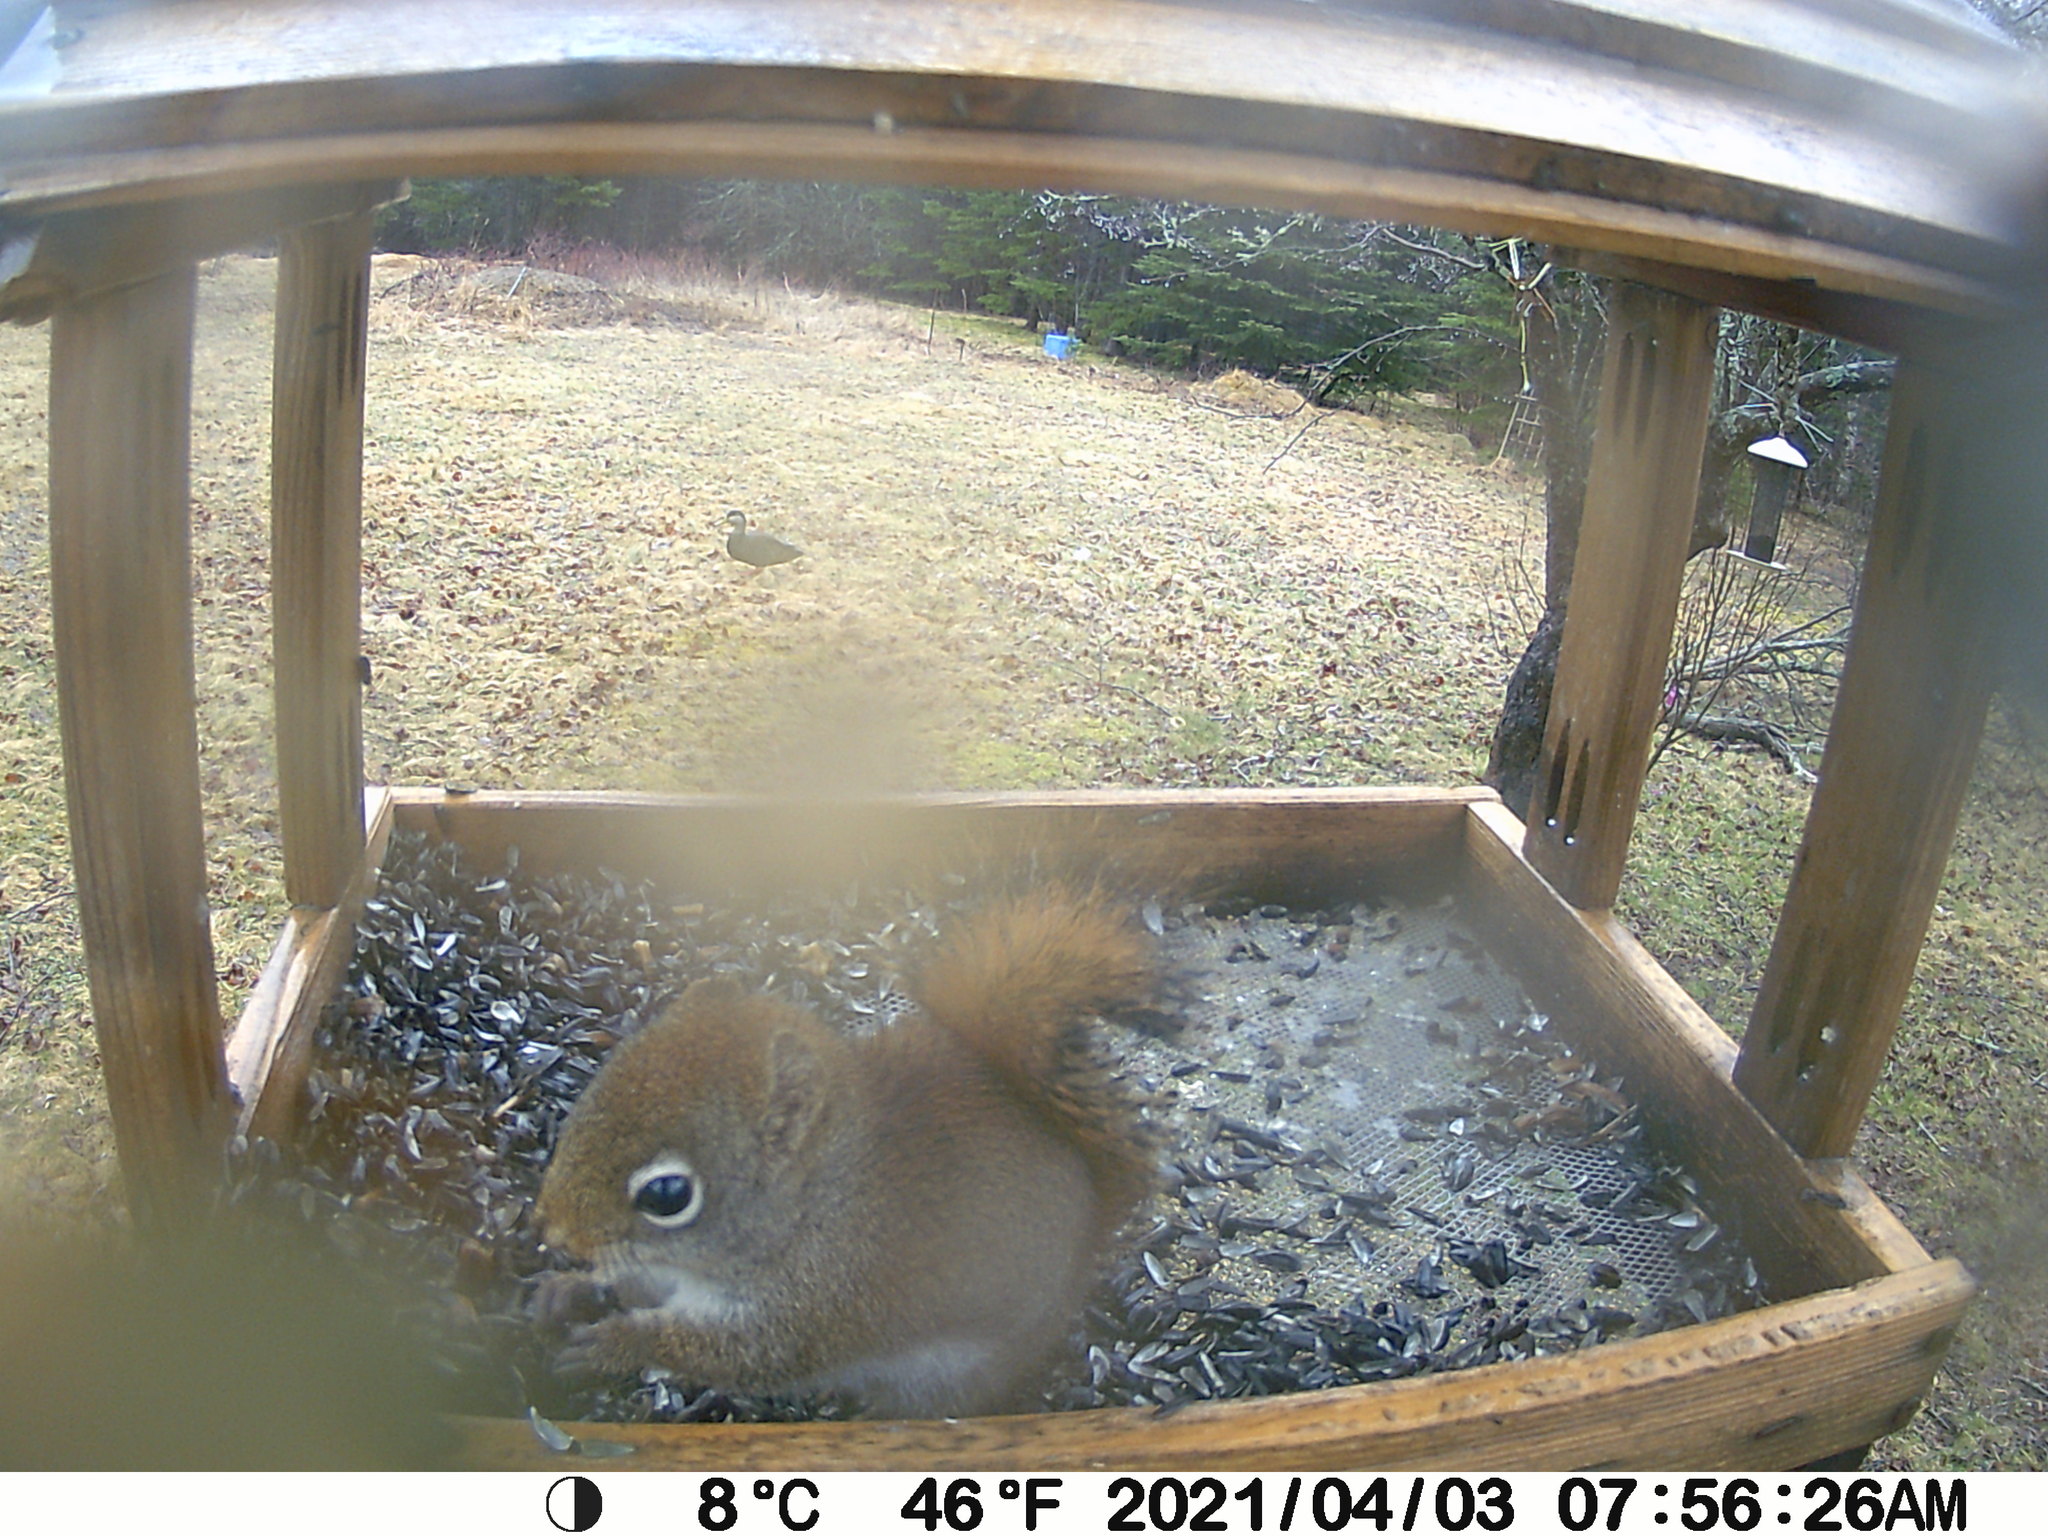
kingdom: Animalia
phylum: Chordata
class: Mammalia
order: Rodentia
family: Sciuridae
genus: Tamiasciurus
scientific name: Tamiasciurus hudsonicus
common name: Red squirrel
